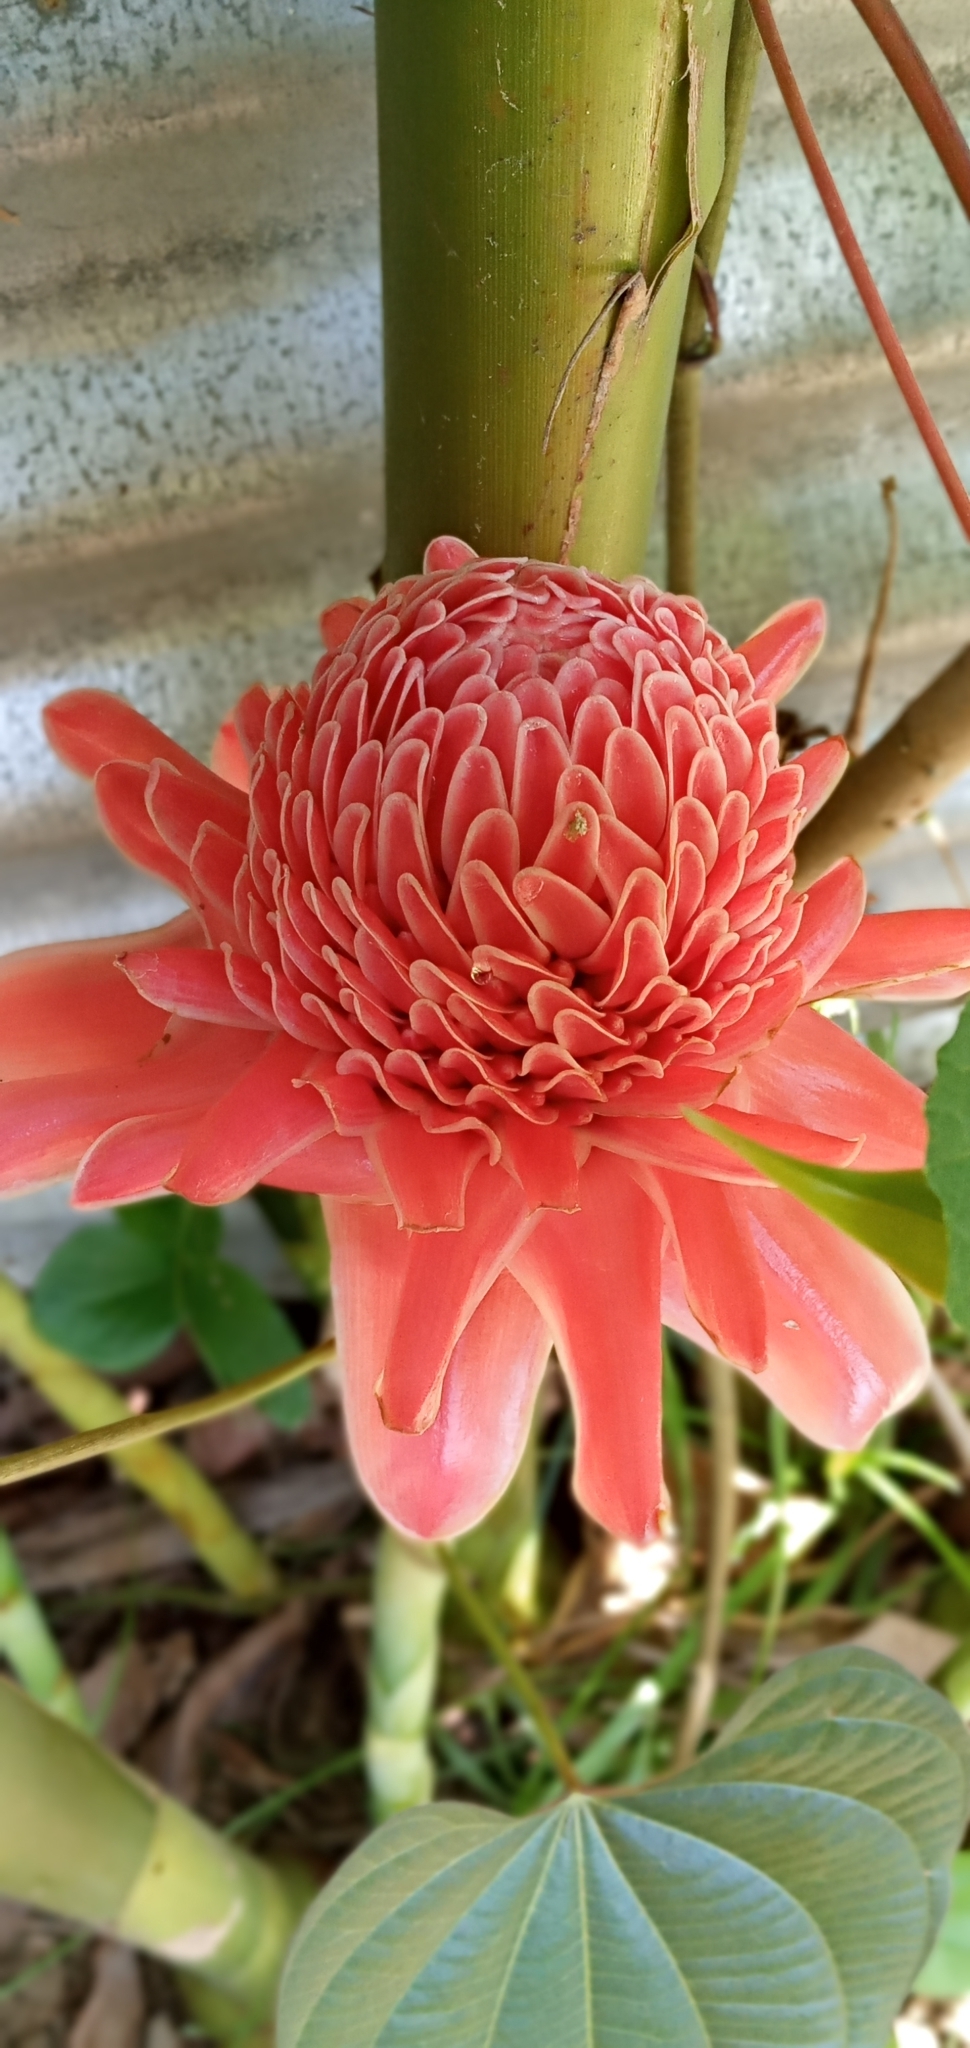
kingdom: Plantae
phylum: Tracheophyta
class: Liliopsida
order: Zingiberales
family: Zingiberaceae
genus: Etlingera
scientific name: Etlingera elatior
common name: Philippine waxflower
